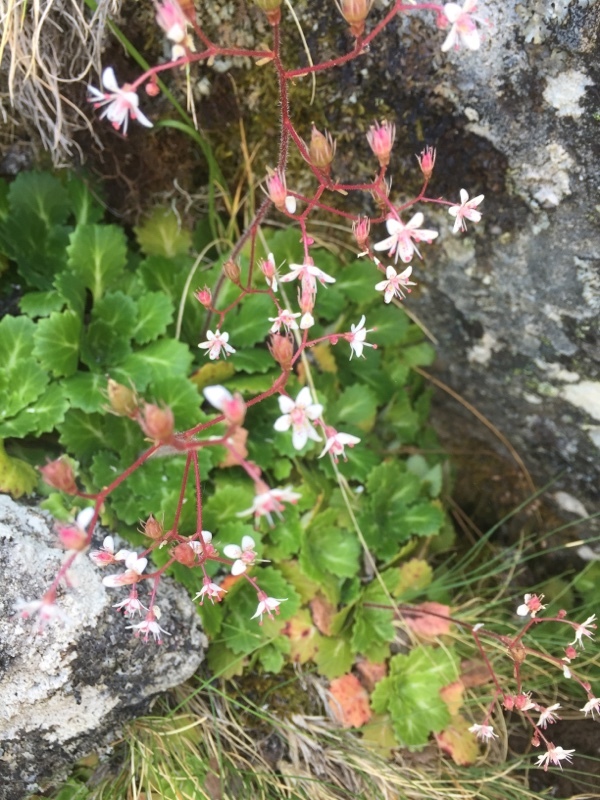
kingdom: Plantae
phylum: Tracheophyta
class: Magnoliopsida
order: Saxifragales
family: Saxifragaceae
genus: Saxifraga
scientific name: Saxifraga spathularis
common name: St patrick's-cabbage
